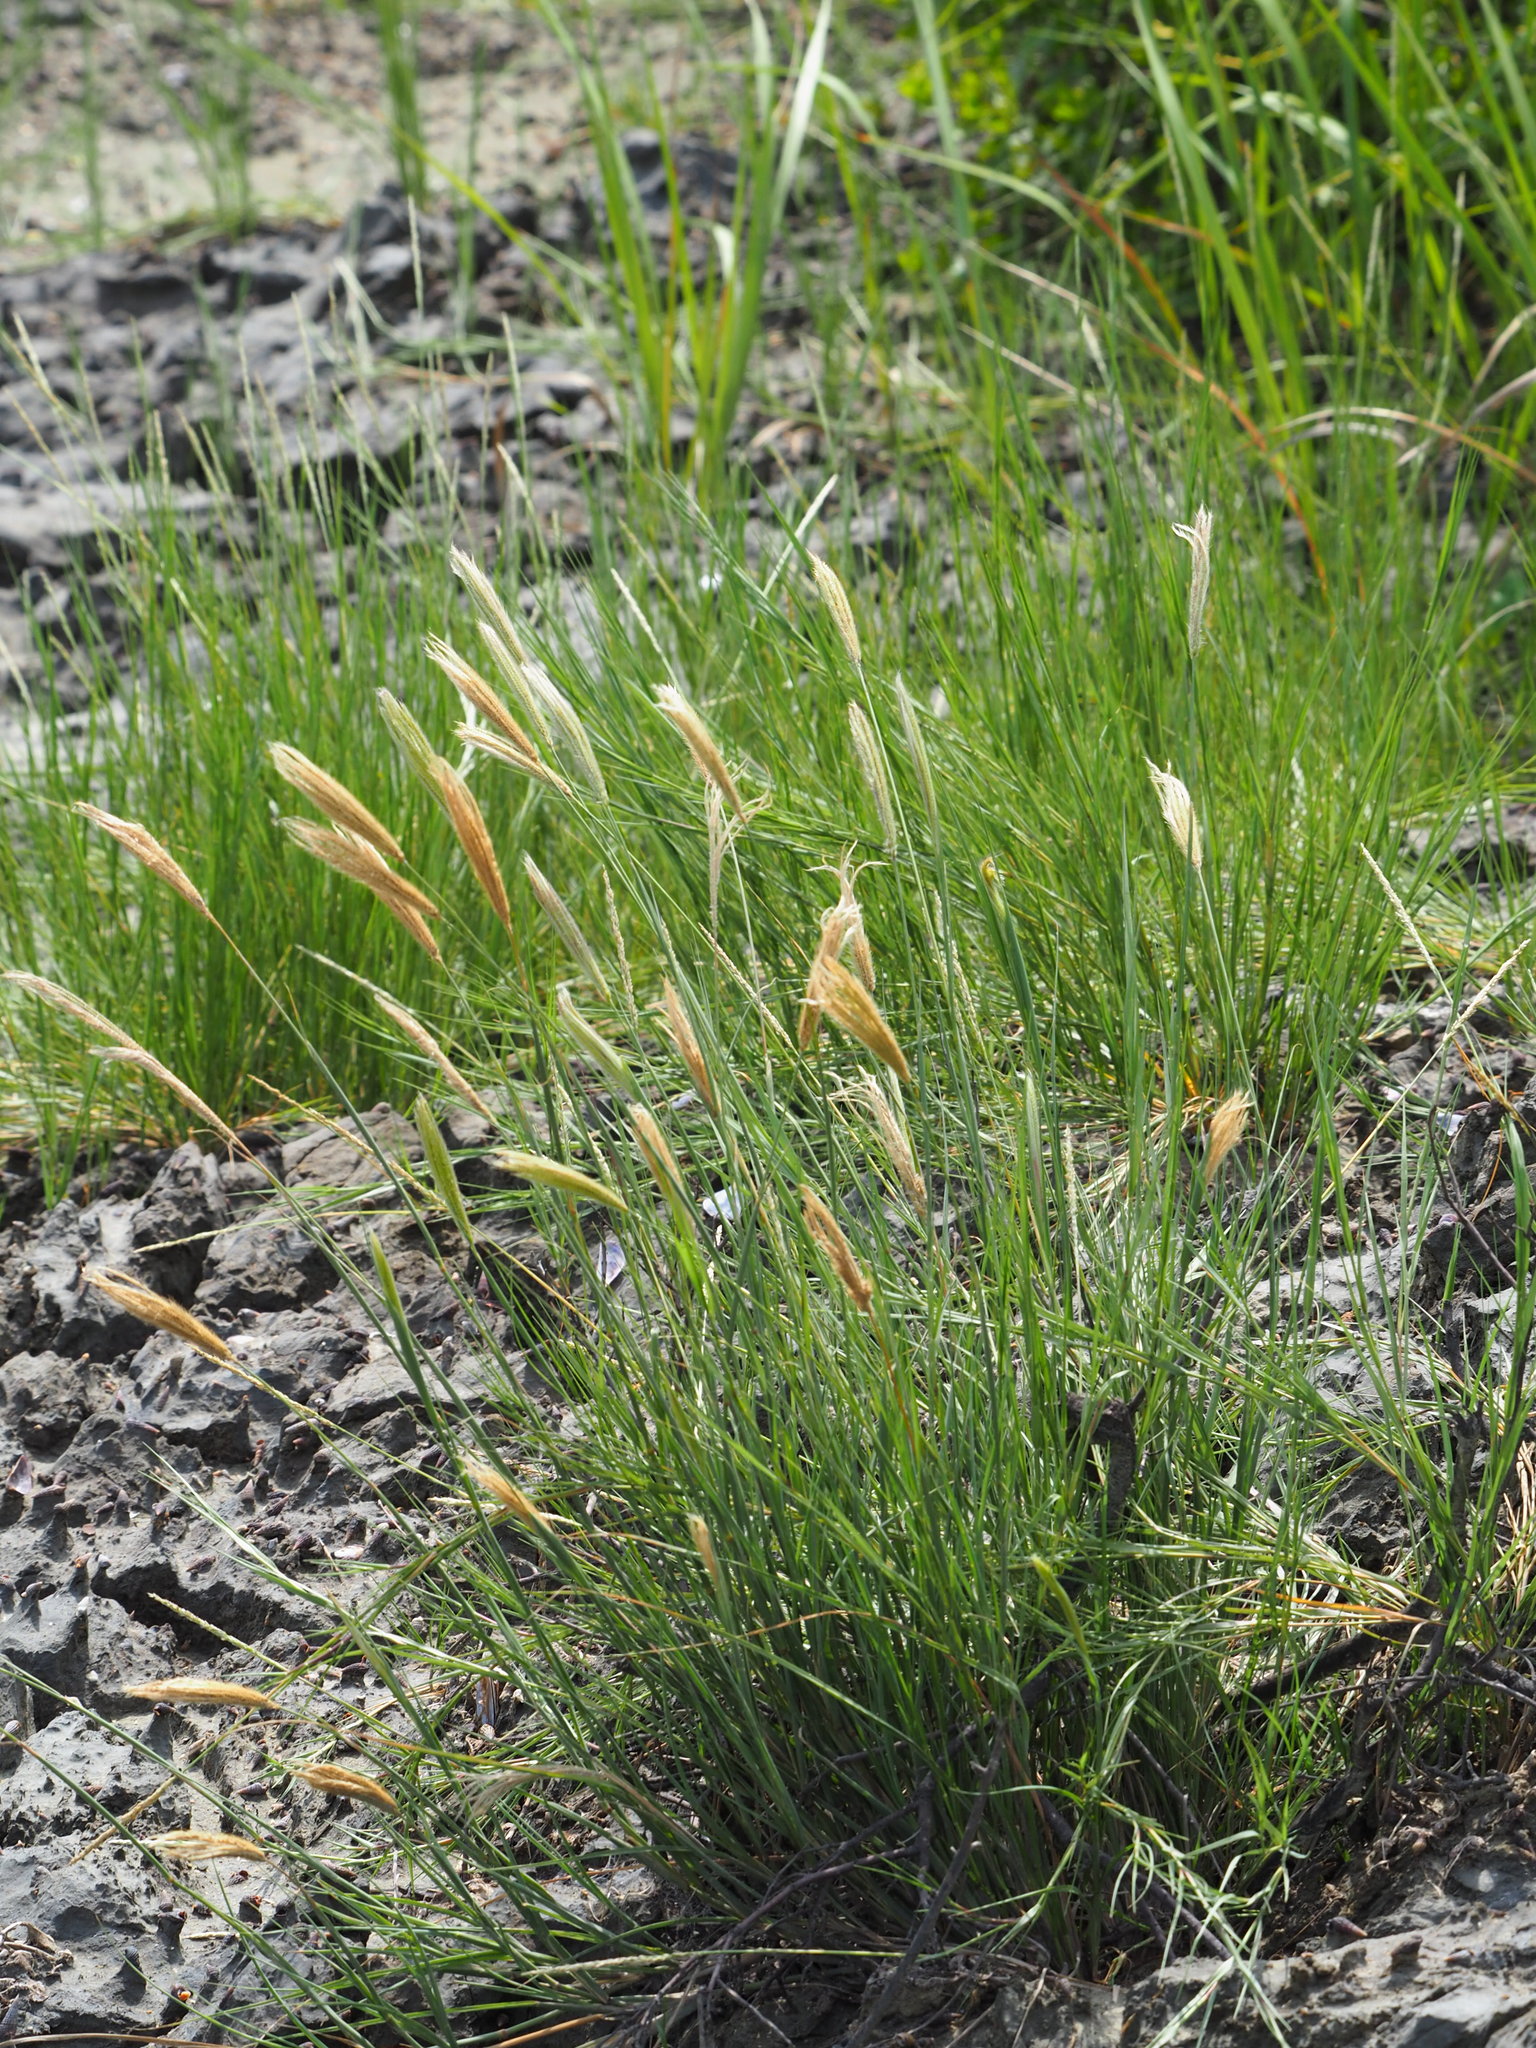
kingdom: Plantae
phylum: Tracheophyta
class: Liliopsida
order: Poales
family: Poaceae
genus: Chloris
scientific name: Chloris formosana
